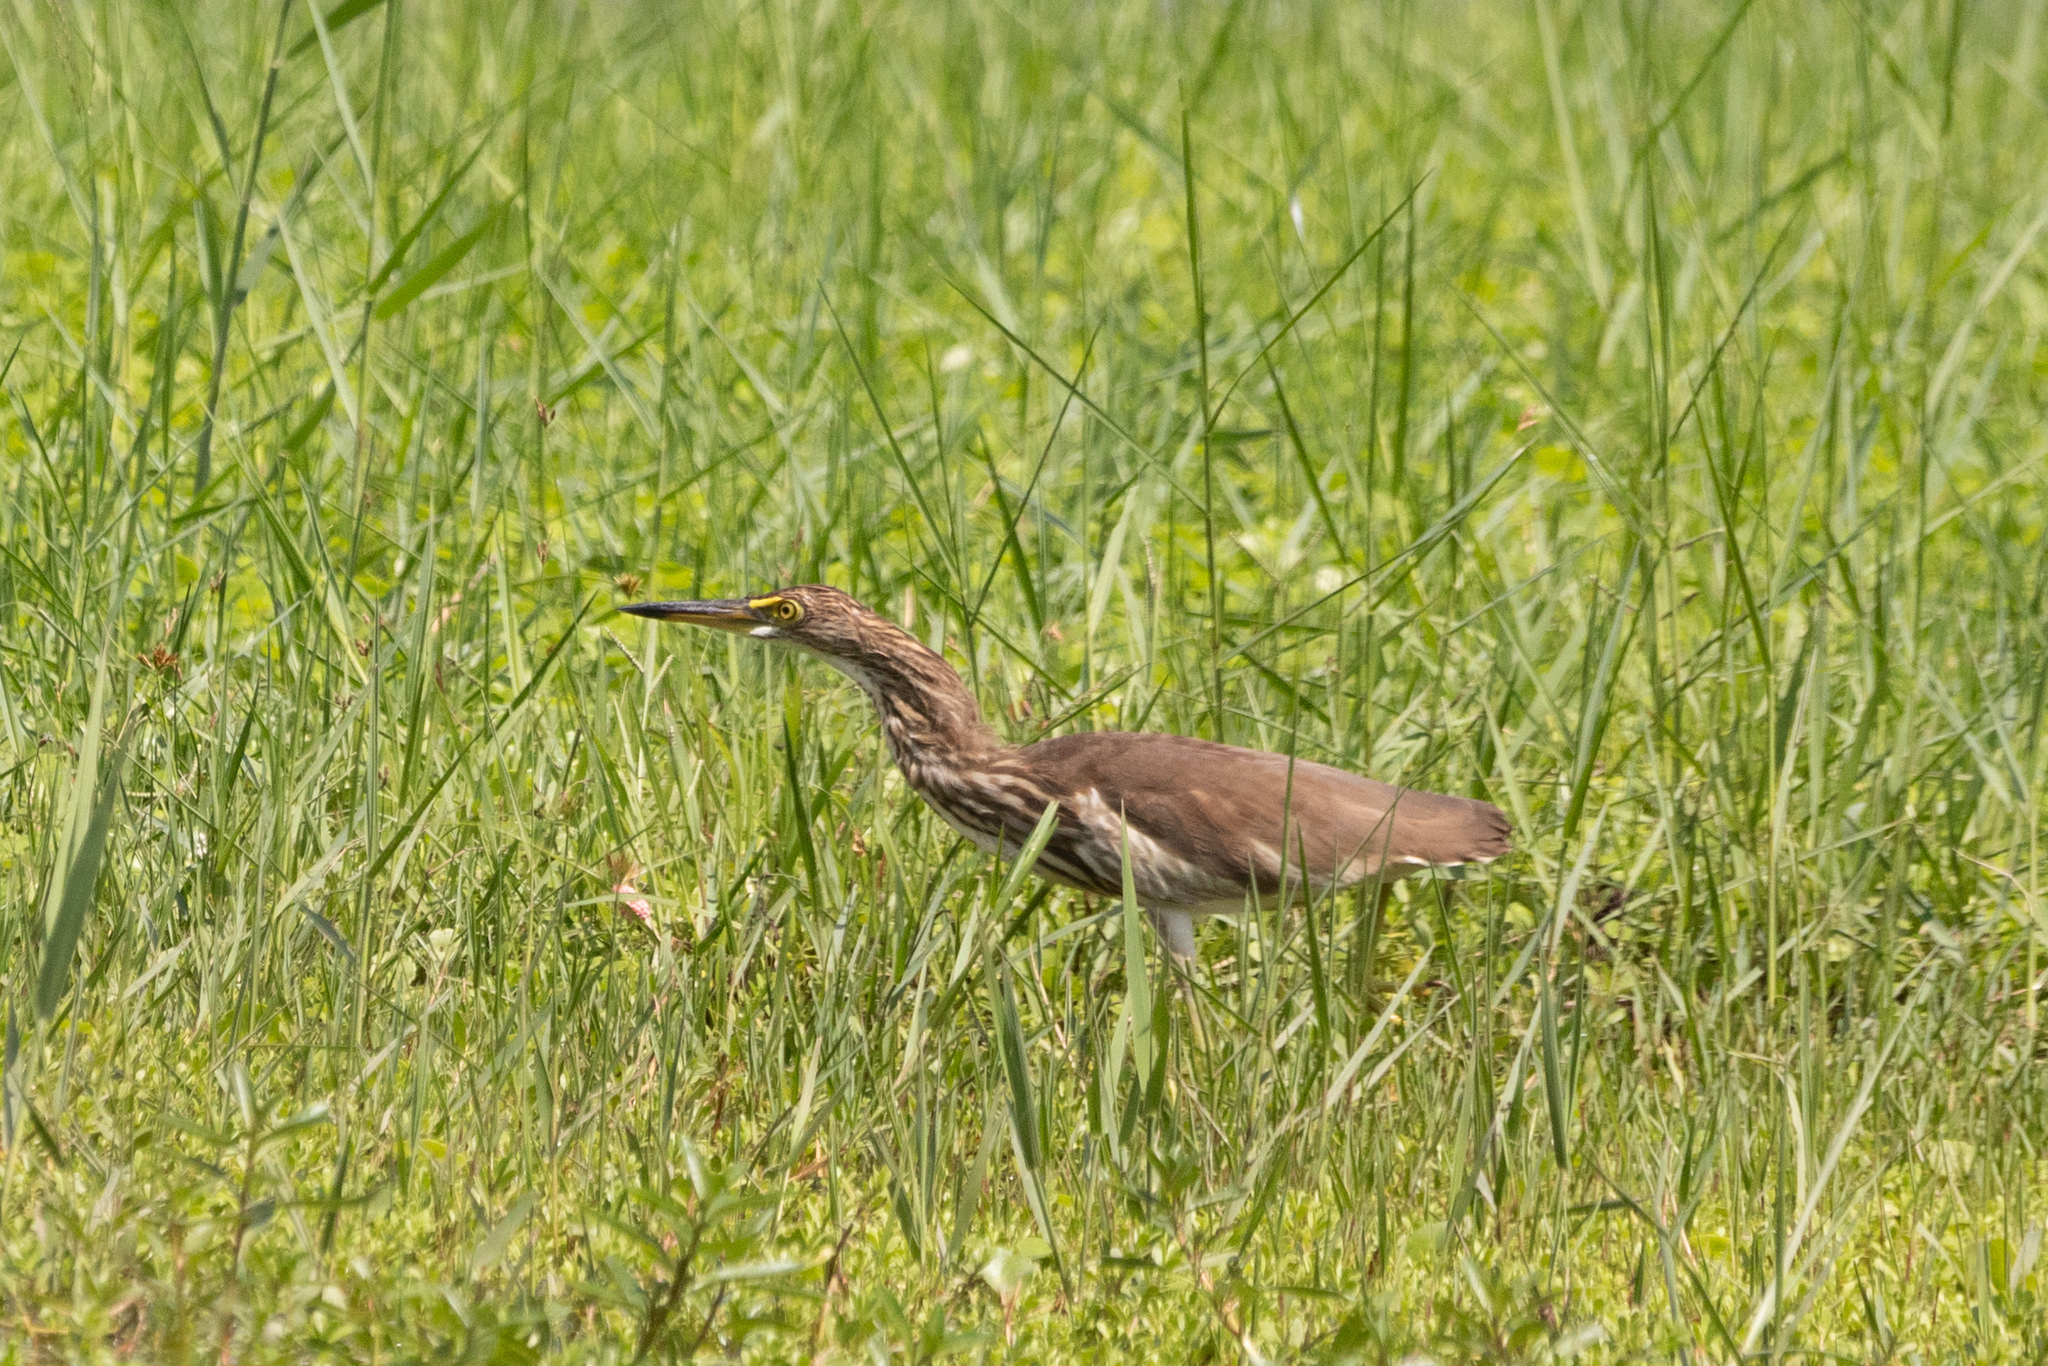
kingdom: Animalia
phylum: Chordata
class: Aves
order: Pelecaniformes
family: Ardeidae
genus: Ardeola
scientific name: Ardeola bacchus
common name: Chinese pond heron
